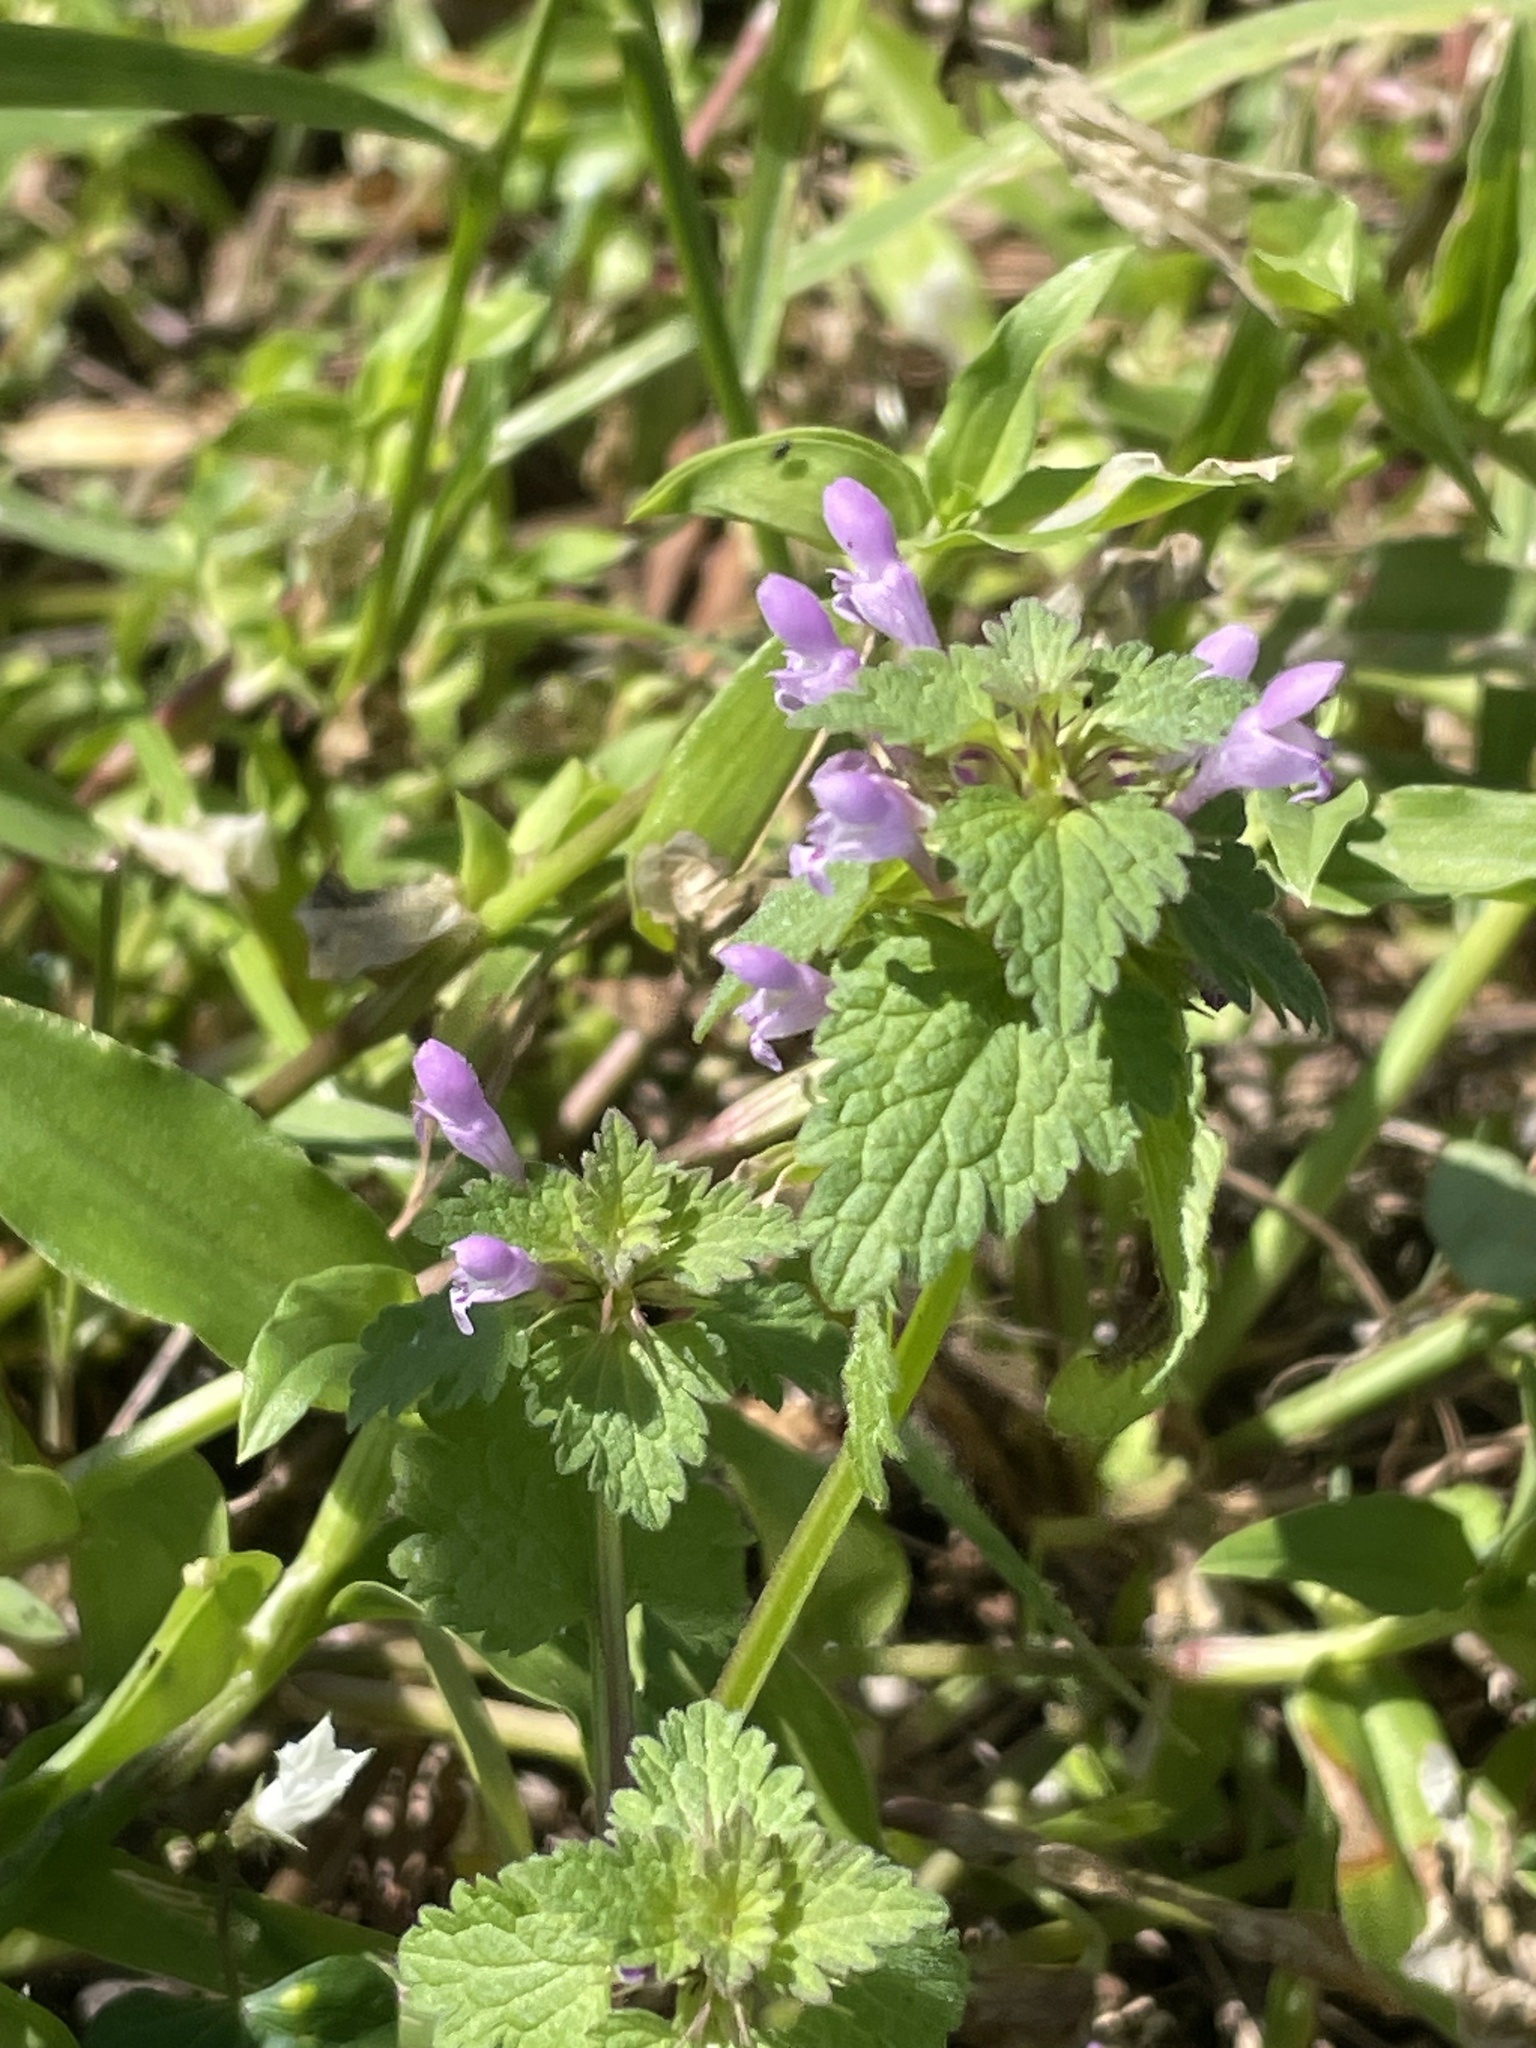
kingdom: Plantae
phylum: Tracheophyta
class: Magnoliopsida
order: Lamiales
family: Lamiaceae
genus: Lamium
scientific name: Lamium purpureum
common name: Red dead-nettle
